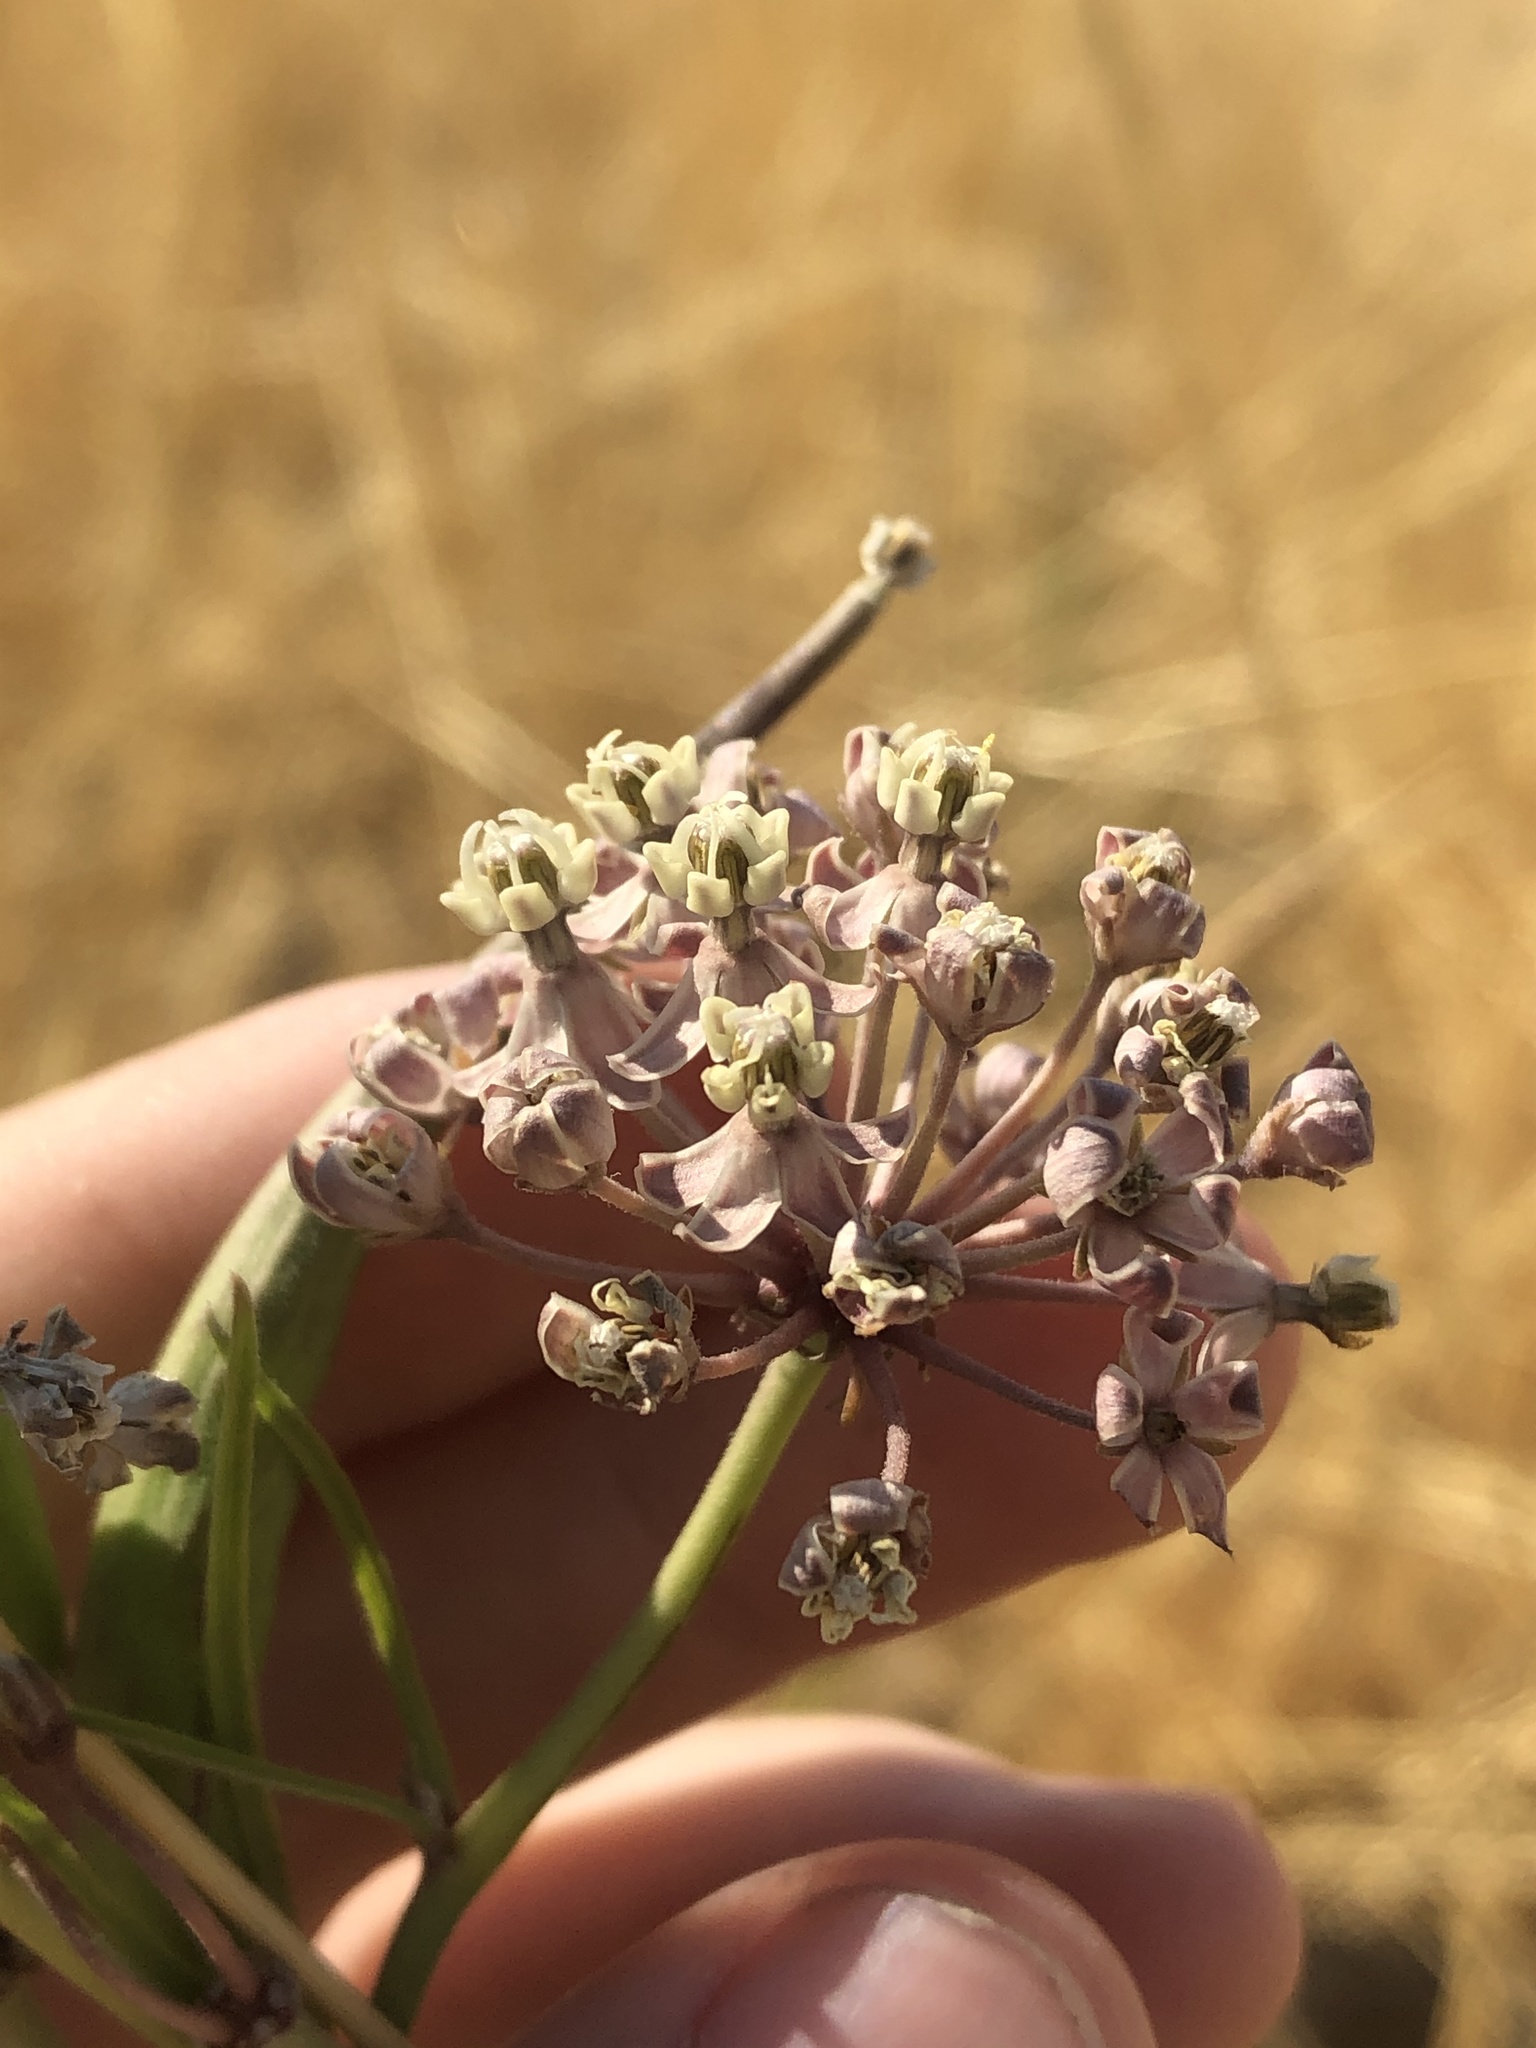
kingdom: Plantae
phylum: Tracheophyta
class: Magnoliopsida
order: Gentianales
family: Apocynaceae
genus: Asclepias
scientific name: Asclepias fascicularis
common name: Mexican milkweed
